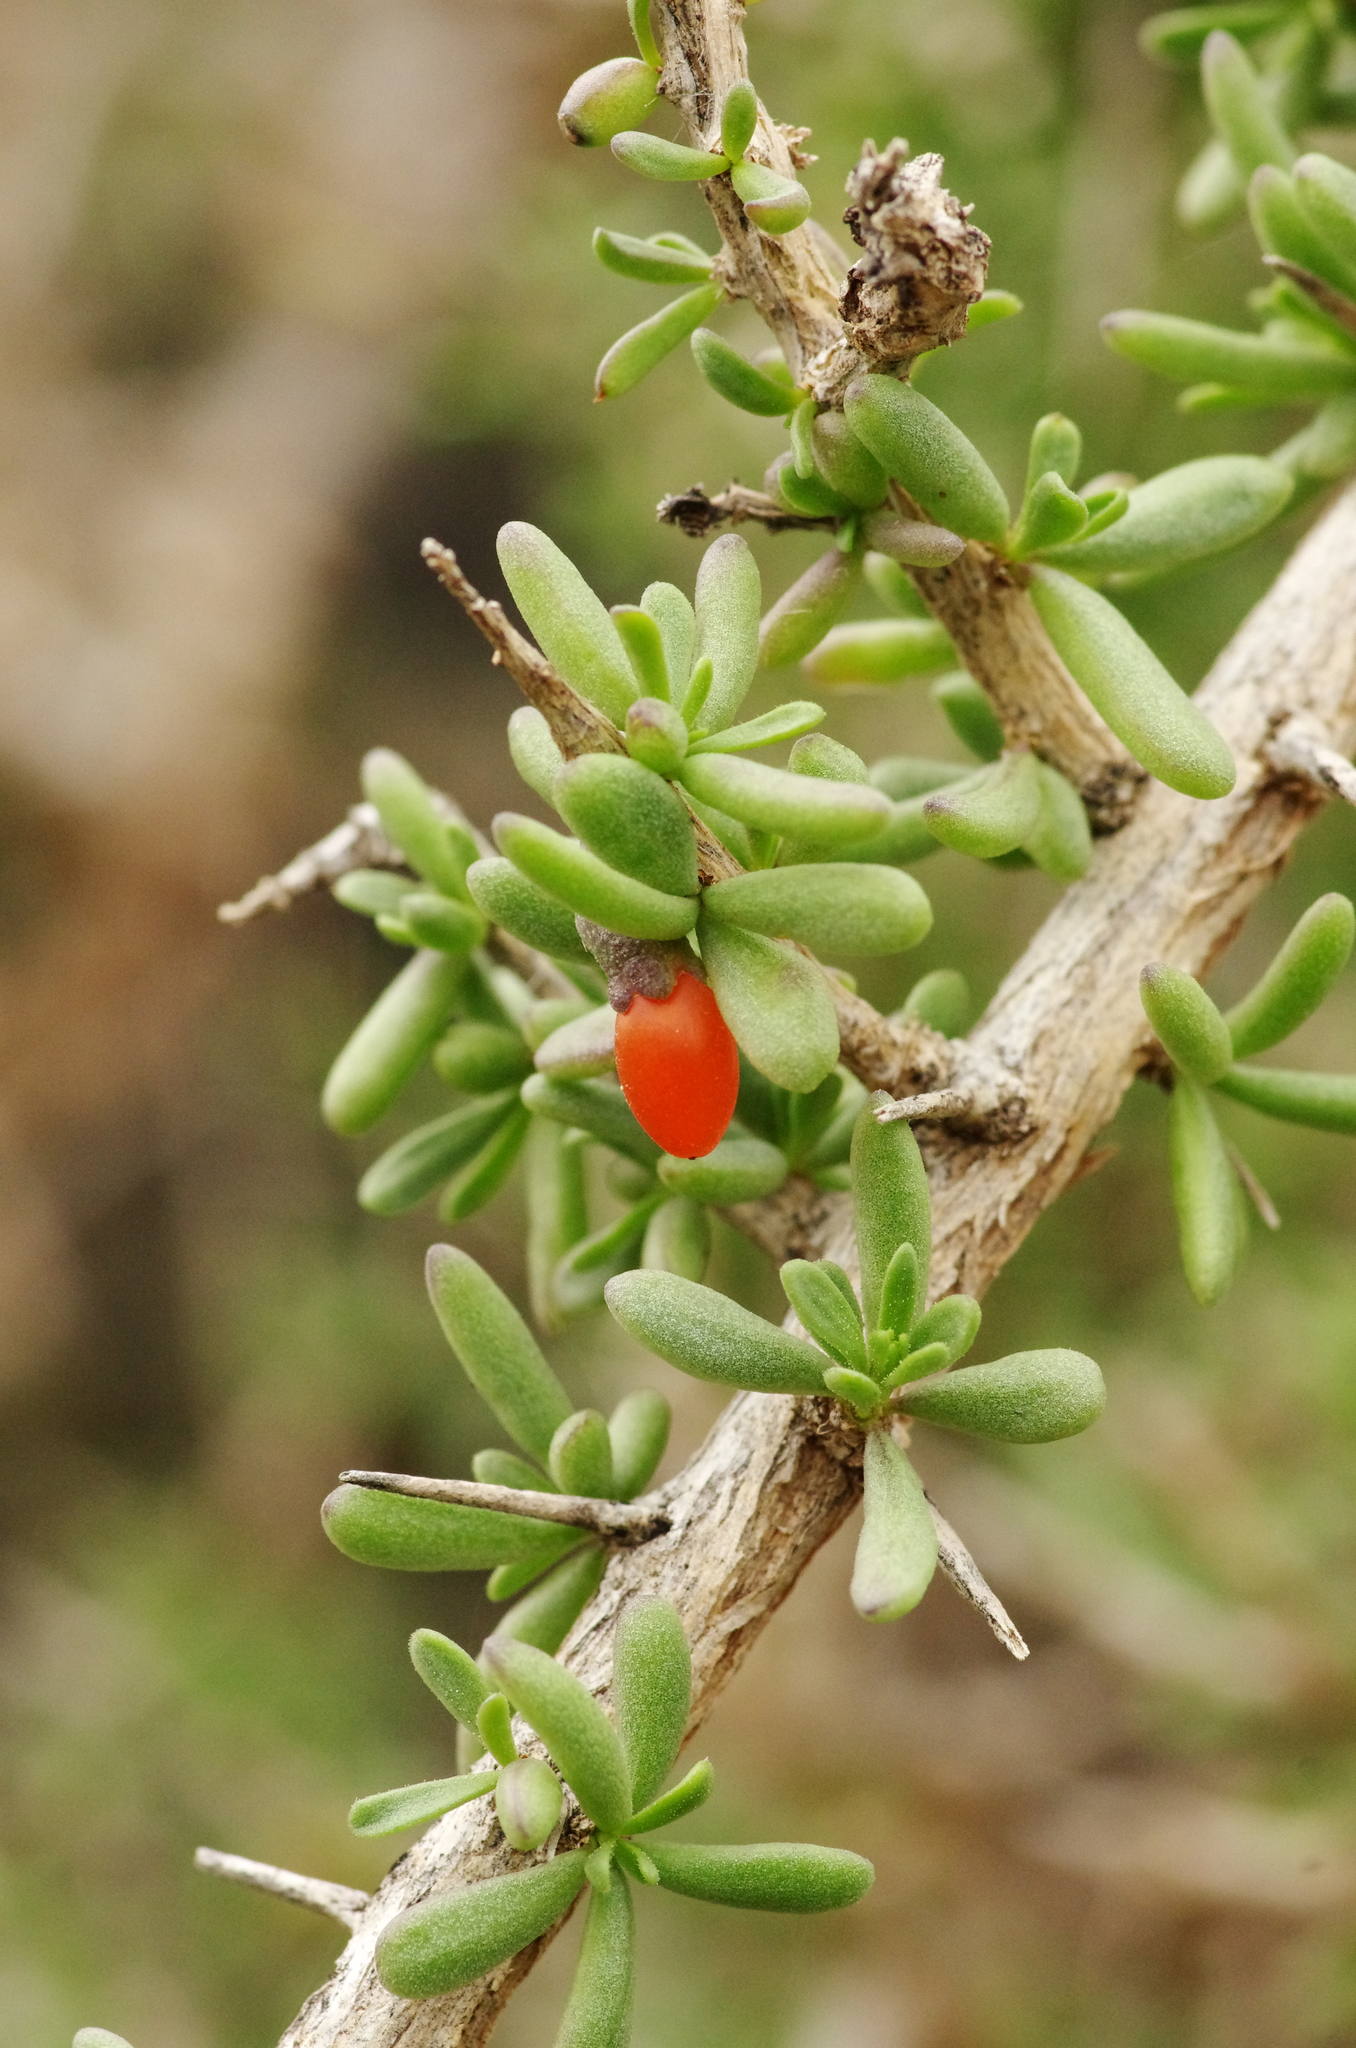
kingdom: Plantae
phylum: Tracheophyta
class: Magnoliopsida
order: Solanales
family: Solanaceae
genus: Lycium
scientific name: Lycium intricatum
